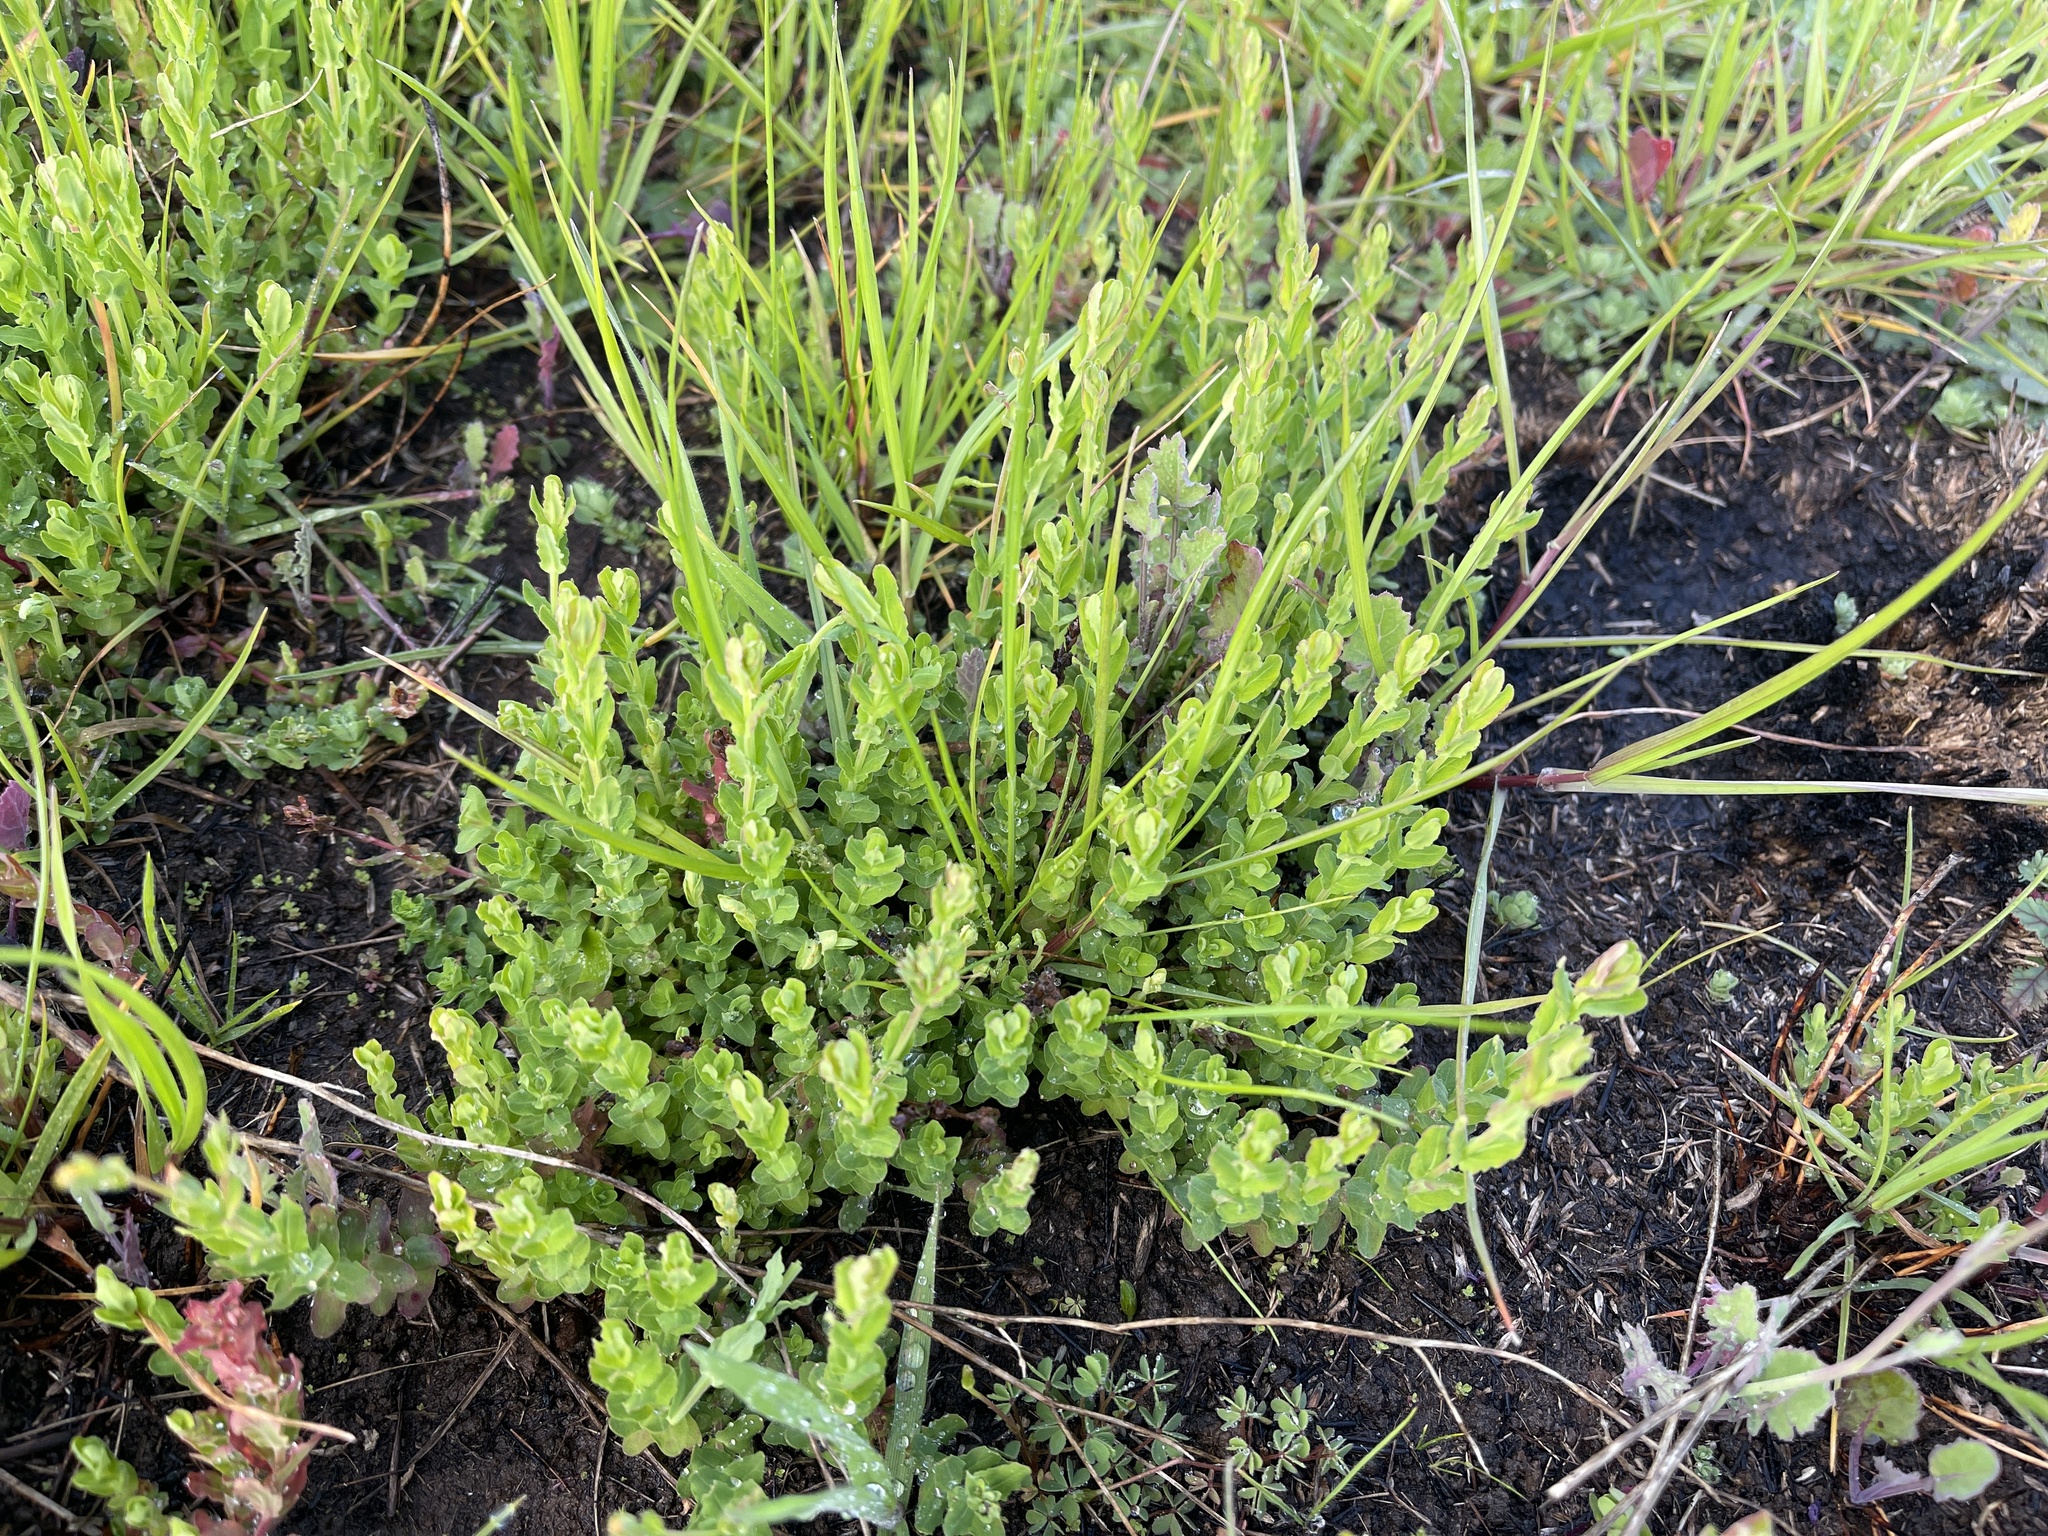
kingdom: Plantae
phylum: Tracheophyta
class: Magnoliopsida
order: Malpighiales
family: Hypericaceae
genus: Hypericum
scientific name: Hypericum gramineum
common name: Grassy st. johnswort
